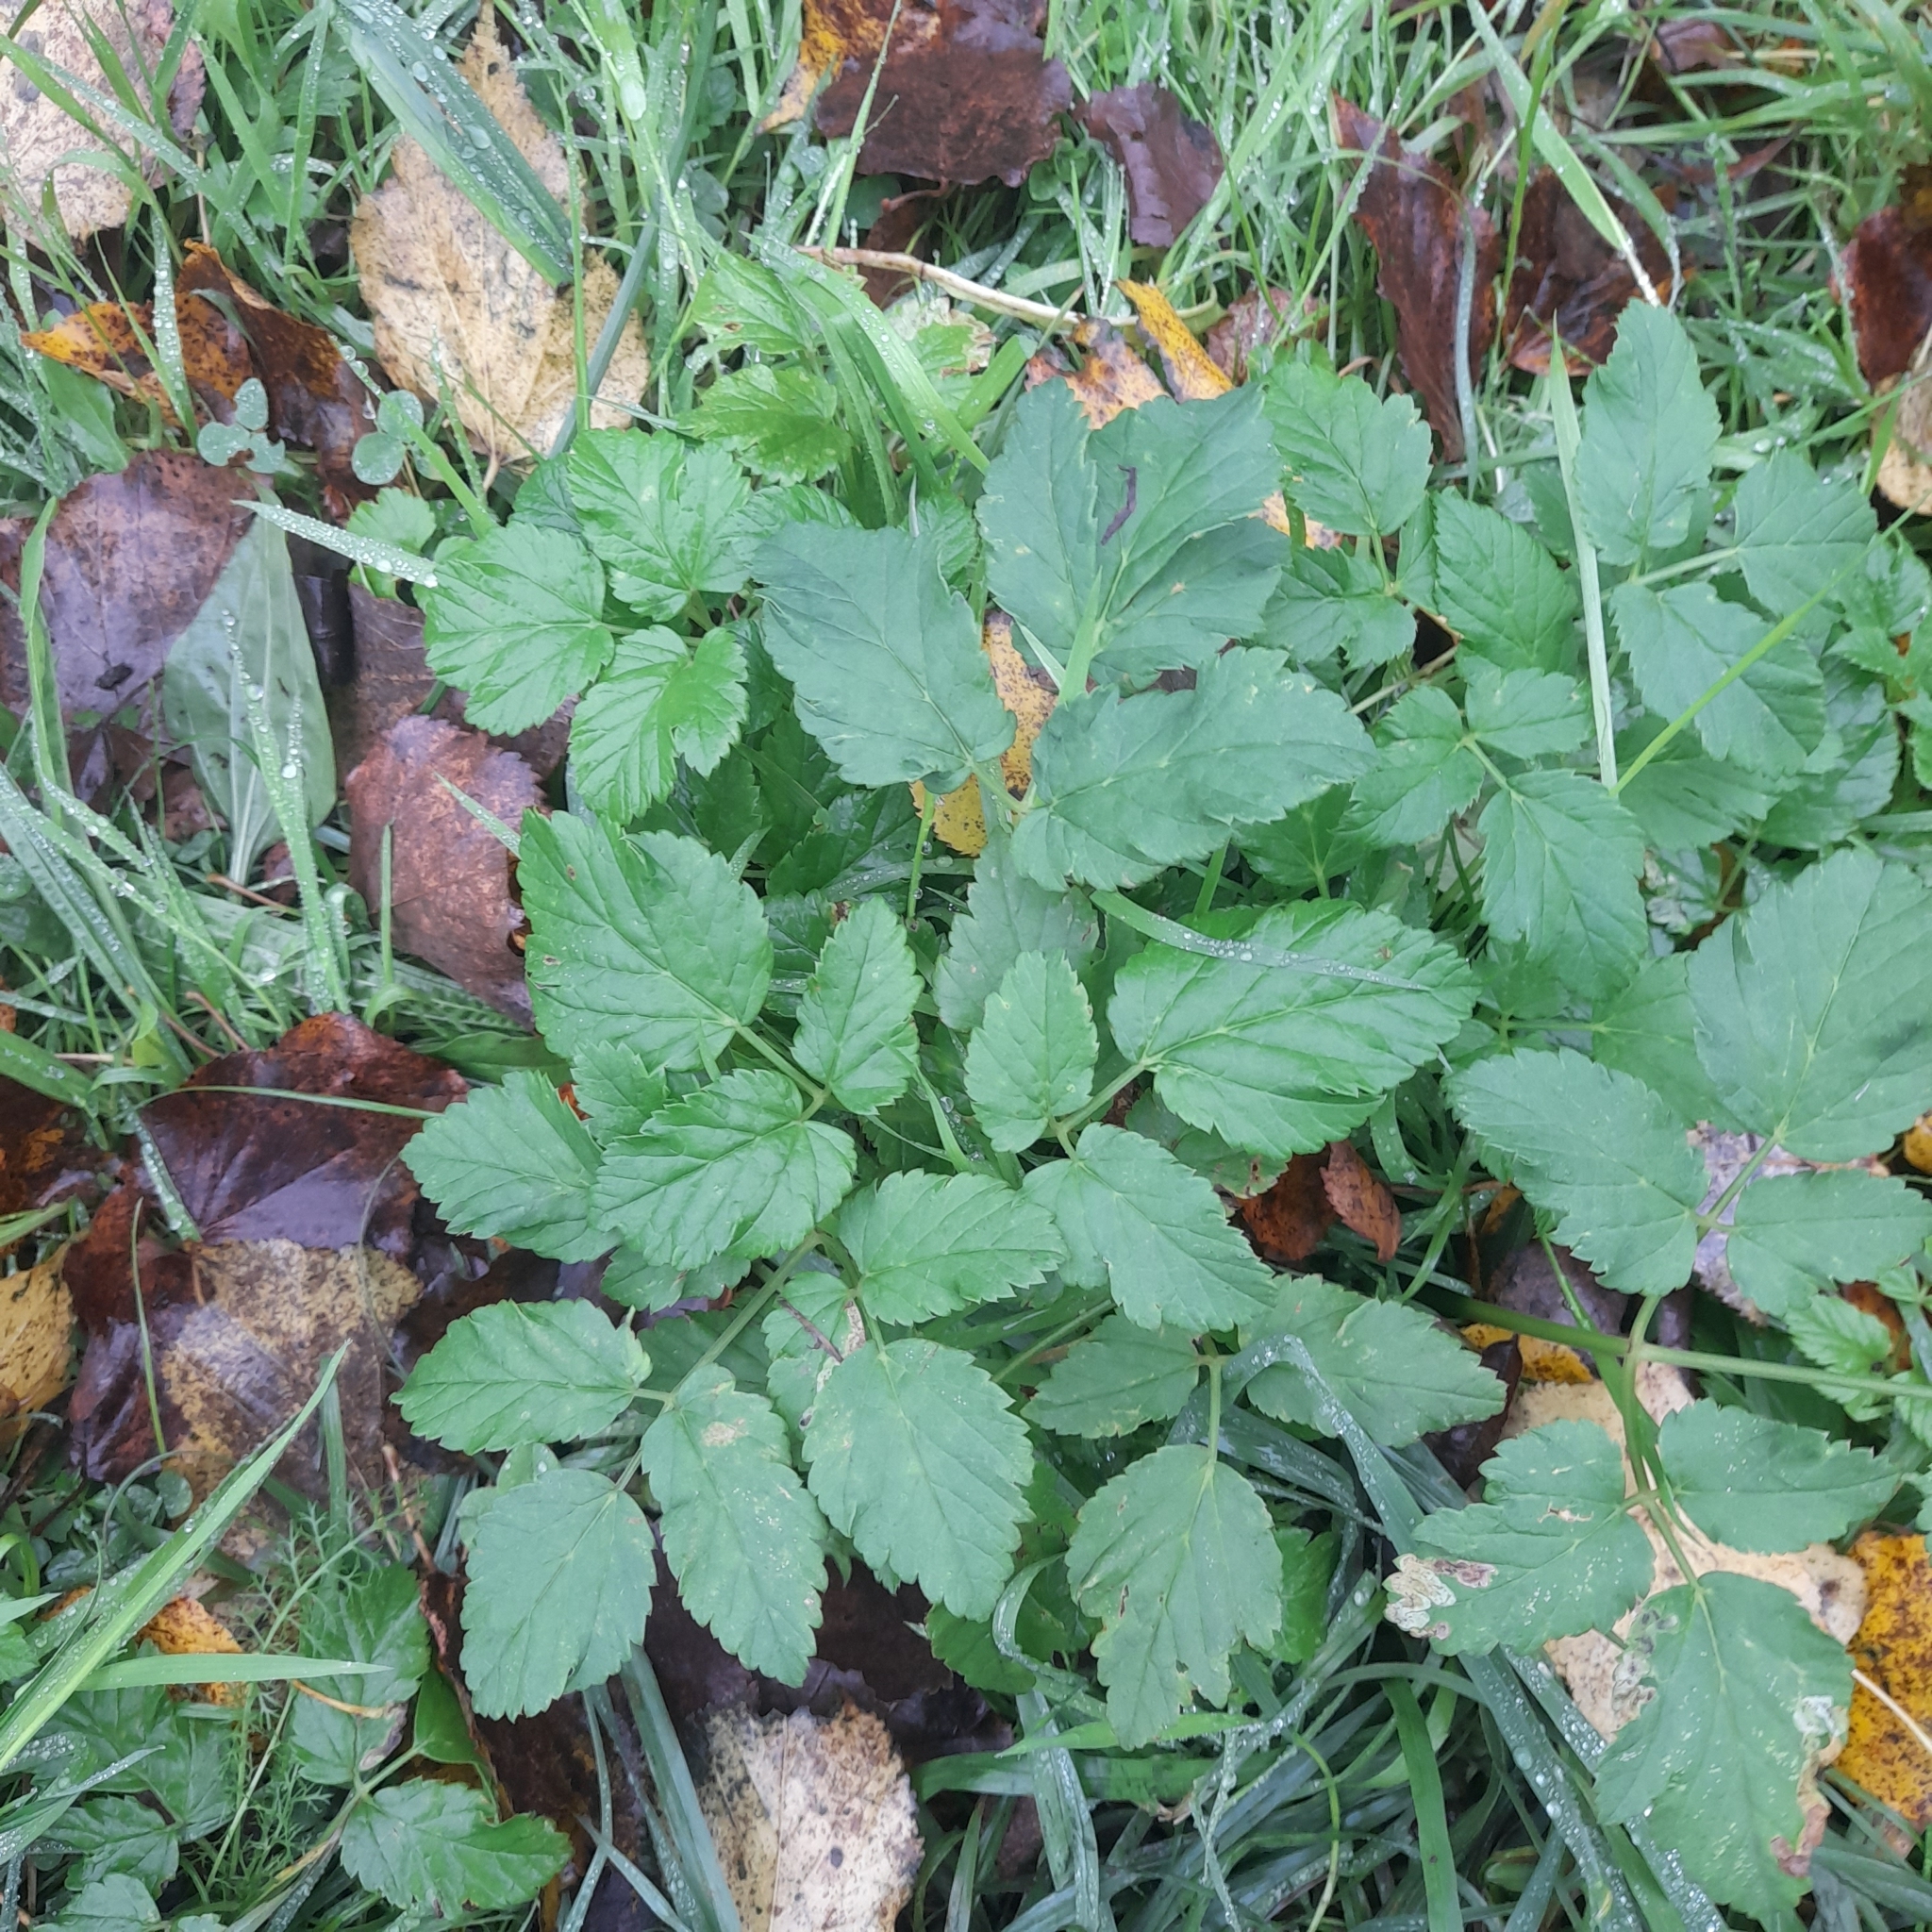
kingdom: Plantae
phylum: Tracheophyta
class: Magnoliopsida
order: Apiales
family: Apiaceae
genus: Aegopodium
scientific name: Aegopodium podagraria
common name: Ground-elder
